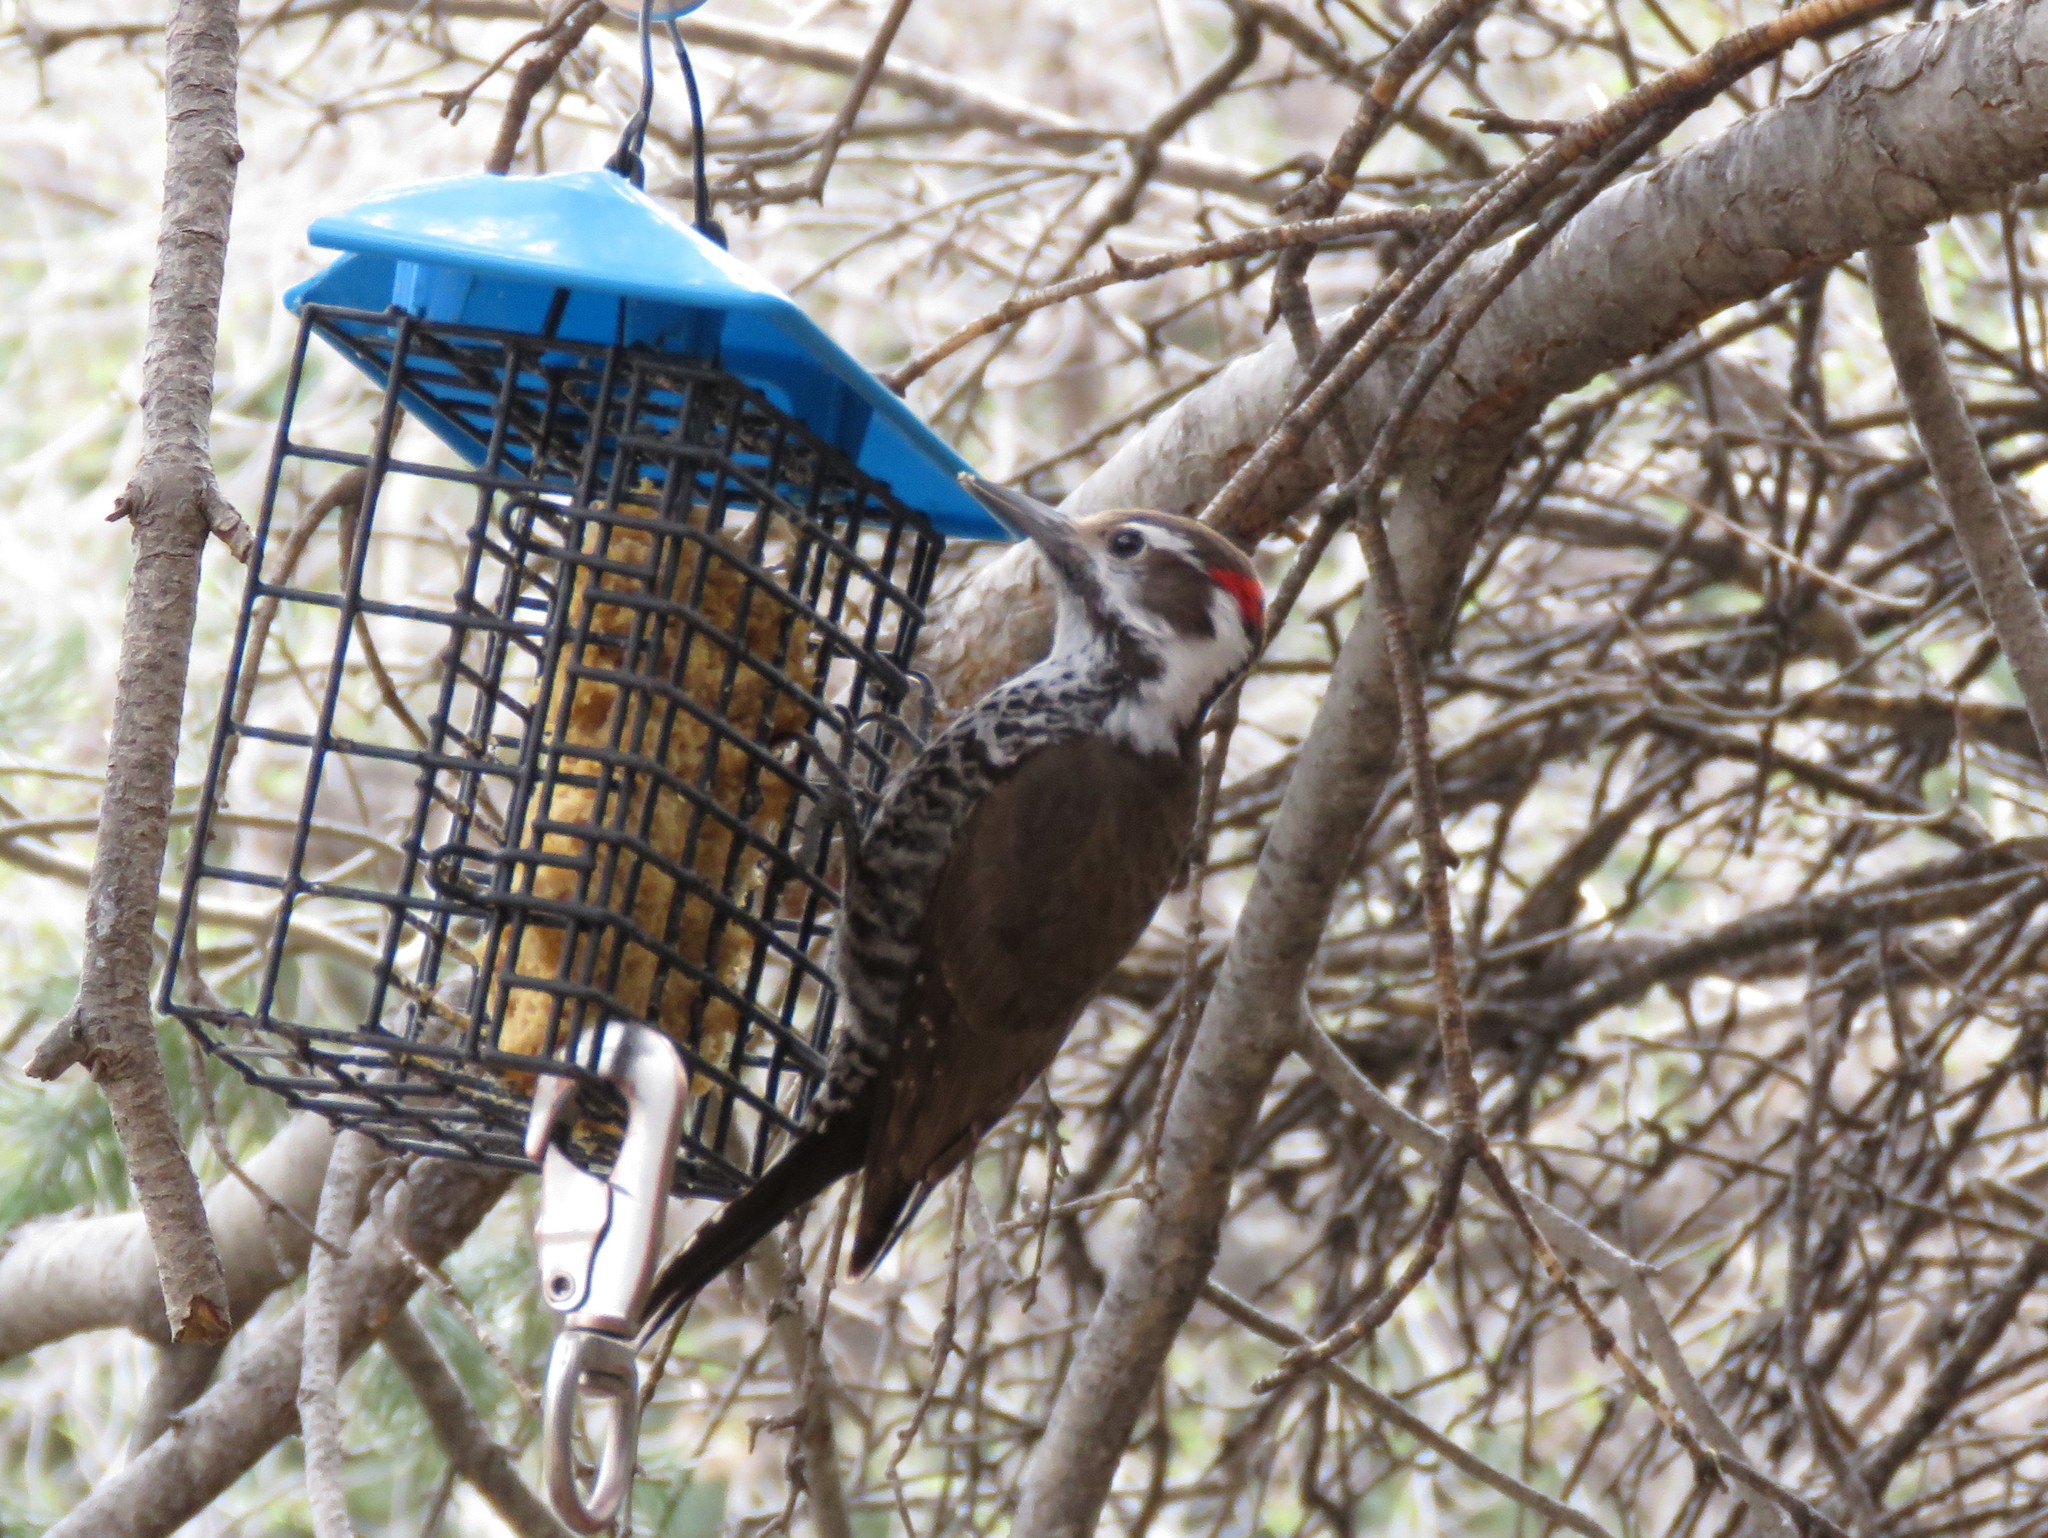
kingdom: Animalia
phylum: Chordata
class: Aves
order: Piciformes
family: Picidae
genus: Leuconotopicus
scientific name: Leuconotopicus arizonae
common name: Arizona woodpecker
